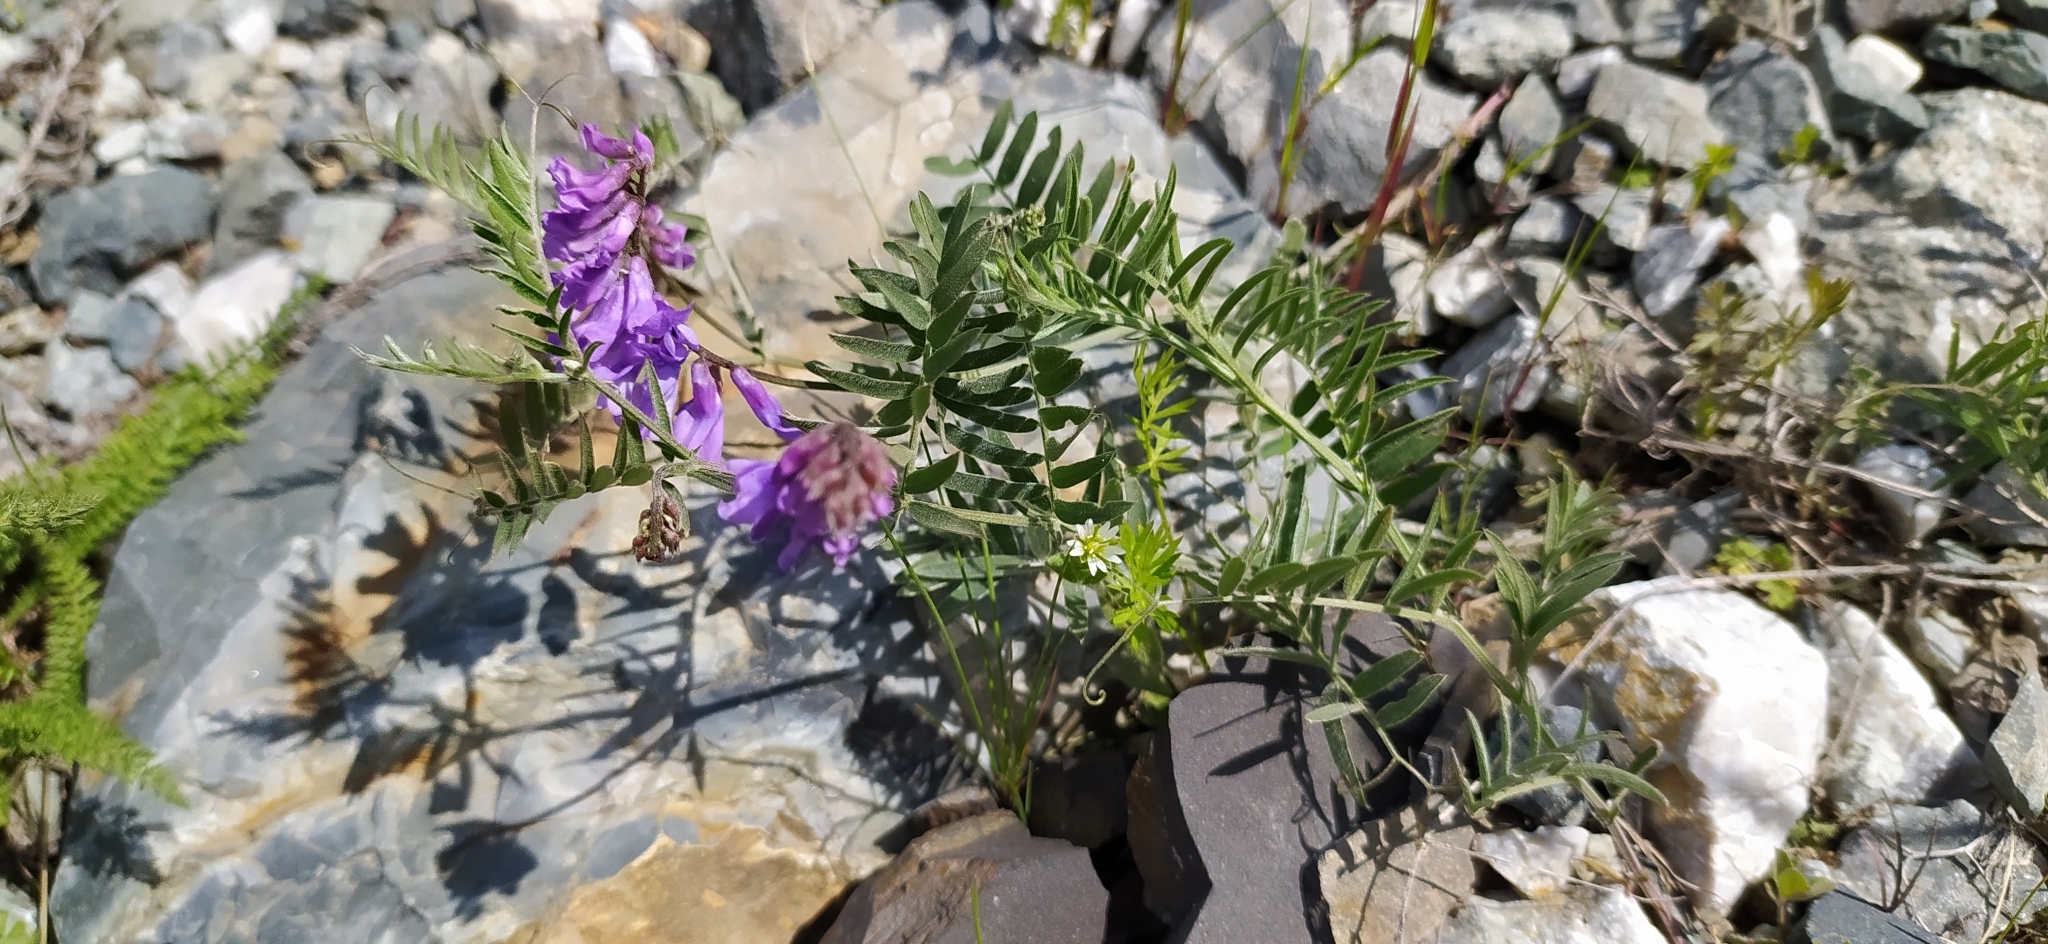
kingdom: Plantae
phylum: Tracheophyta
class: Magnoliopsida
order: Fabales
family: Fabaceae
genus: Vicia
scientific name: Vicia cracca
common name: Bird vetch
